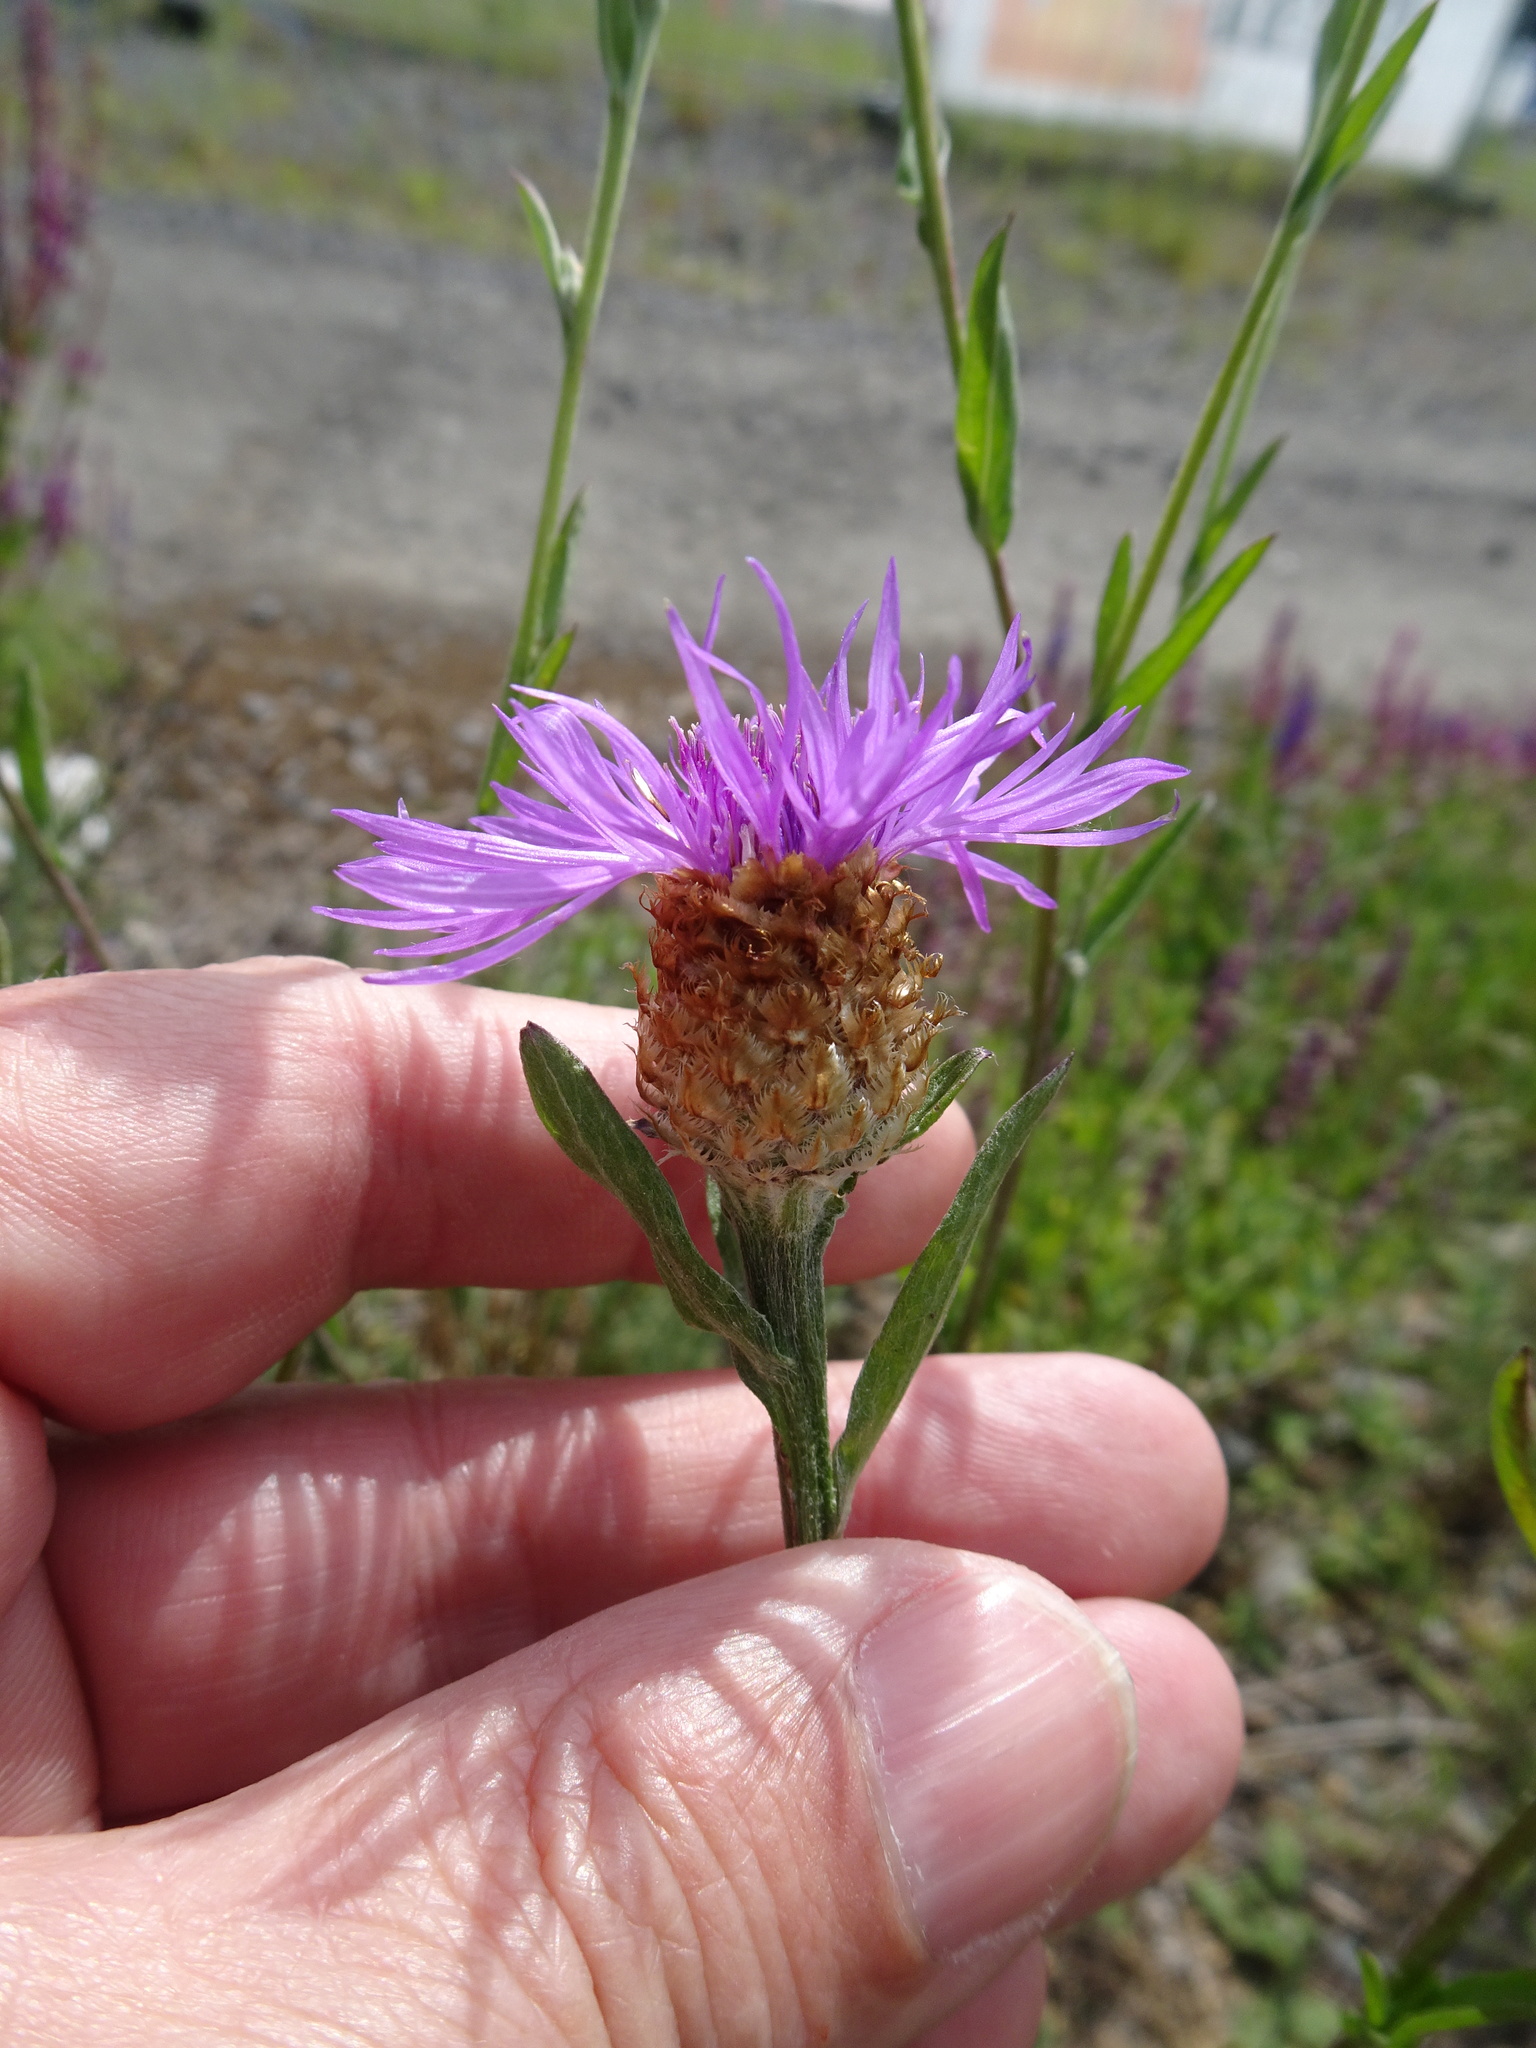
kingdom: Plantae
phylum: Tracheophyta
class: Magnoliopsida
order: Asterales
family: Asteraceae
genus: Centaurea
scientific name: Centaurea jacea
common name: Brown knapweed
